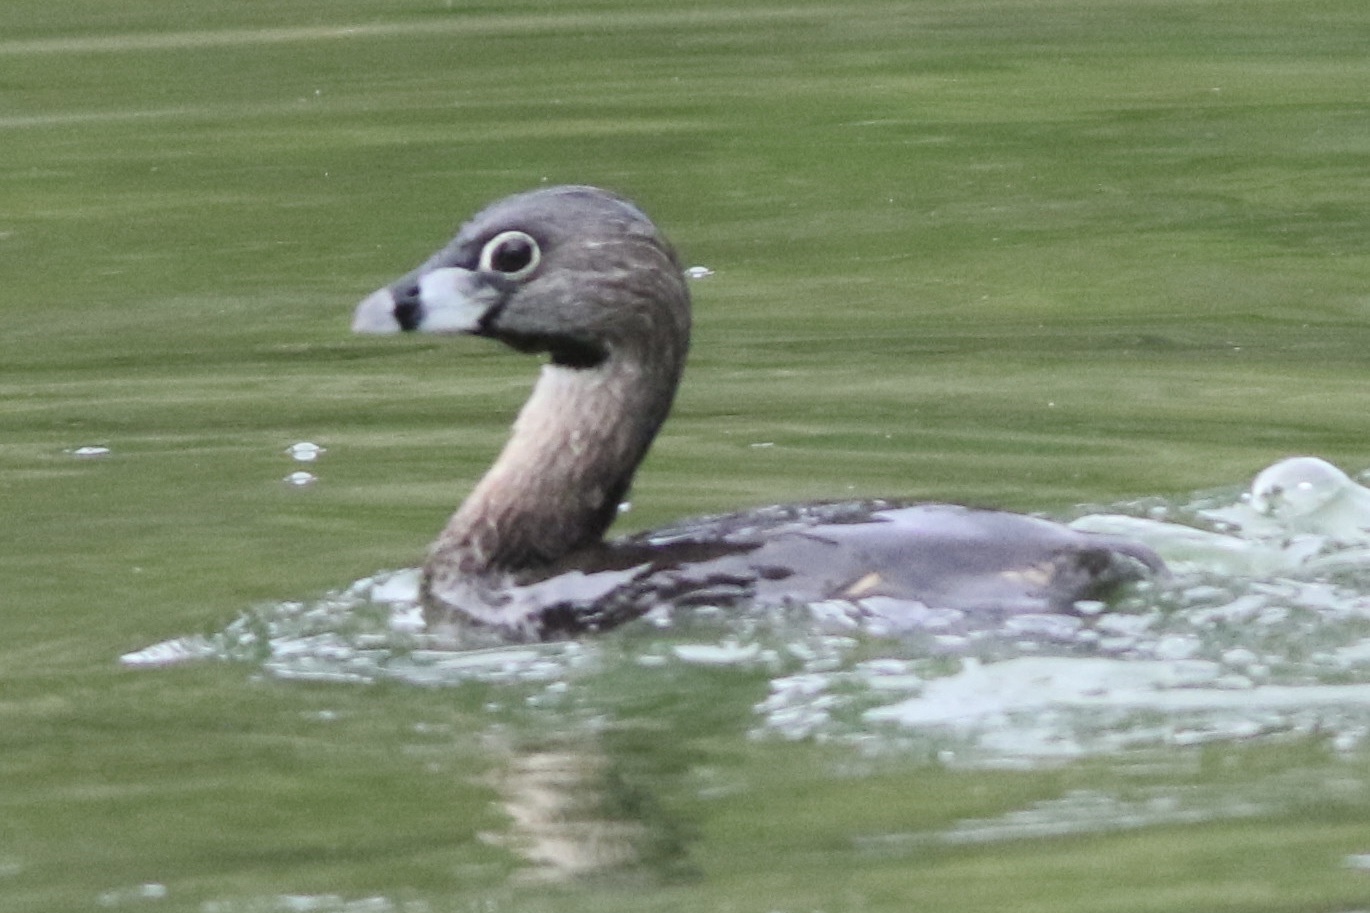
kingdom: Animalia
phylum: Chordata
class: Aves
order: Podicipediformes
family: Podicipedidae
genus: Podilymbus
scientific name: Podilymbus podiceps
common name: Pied-billed grebe
